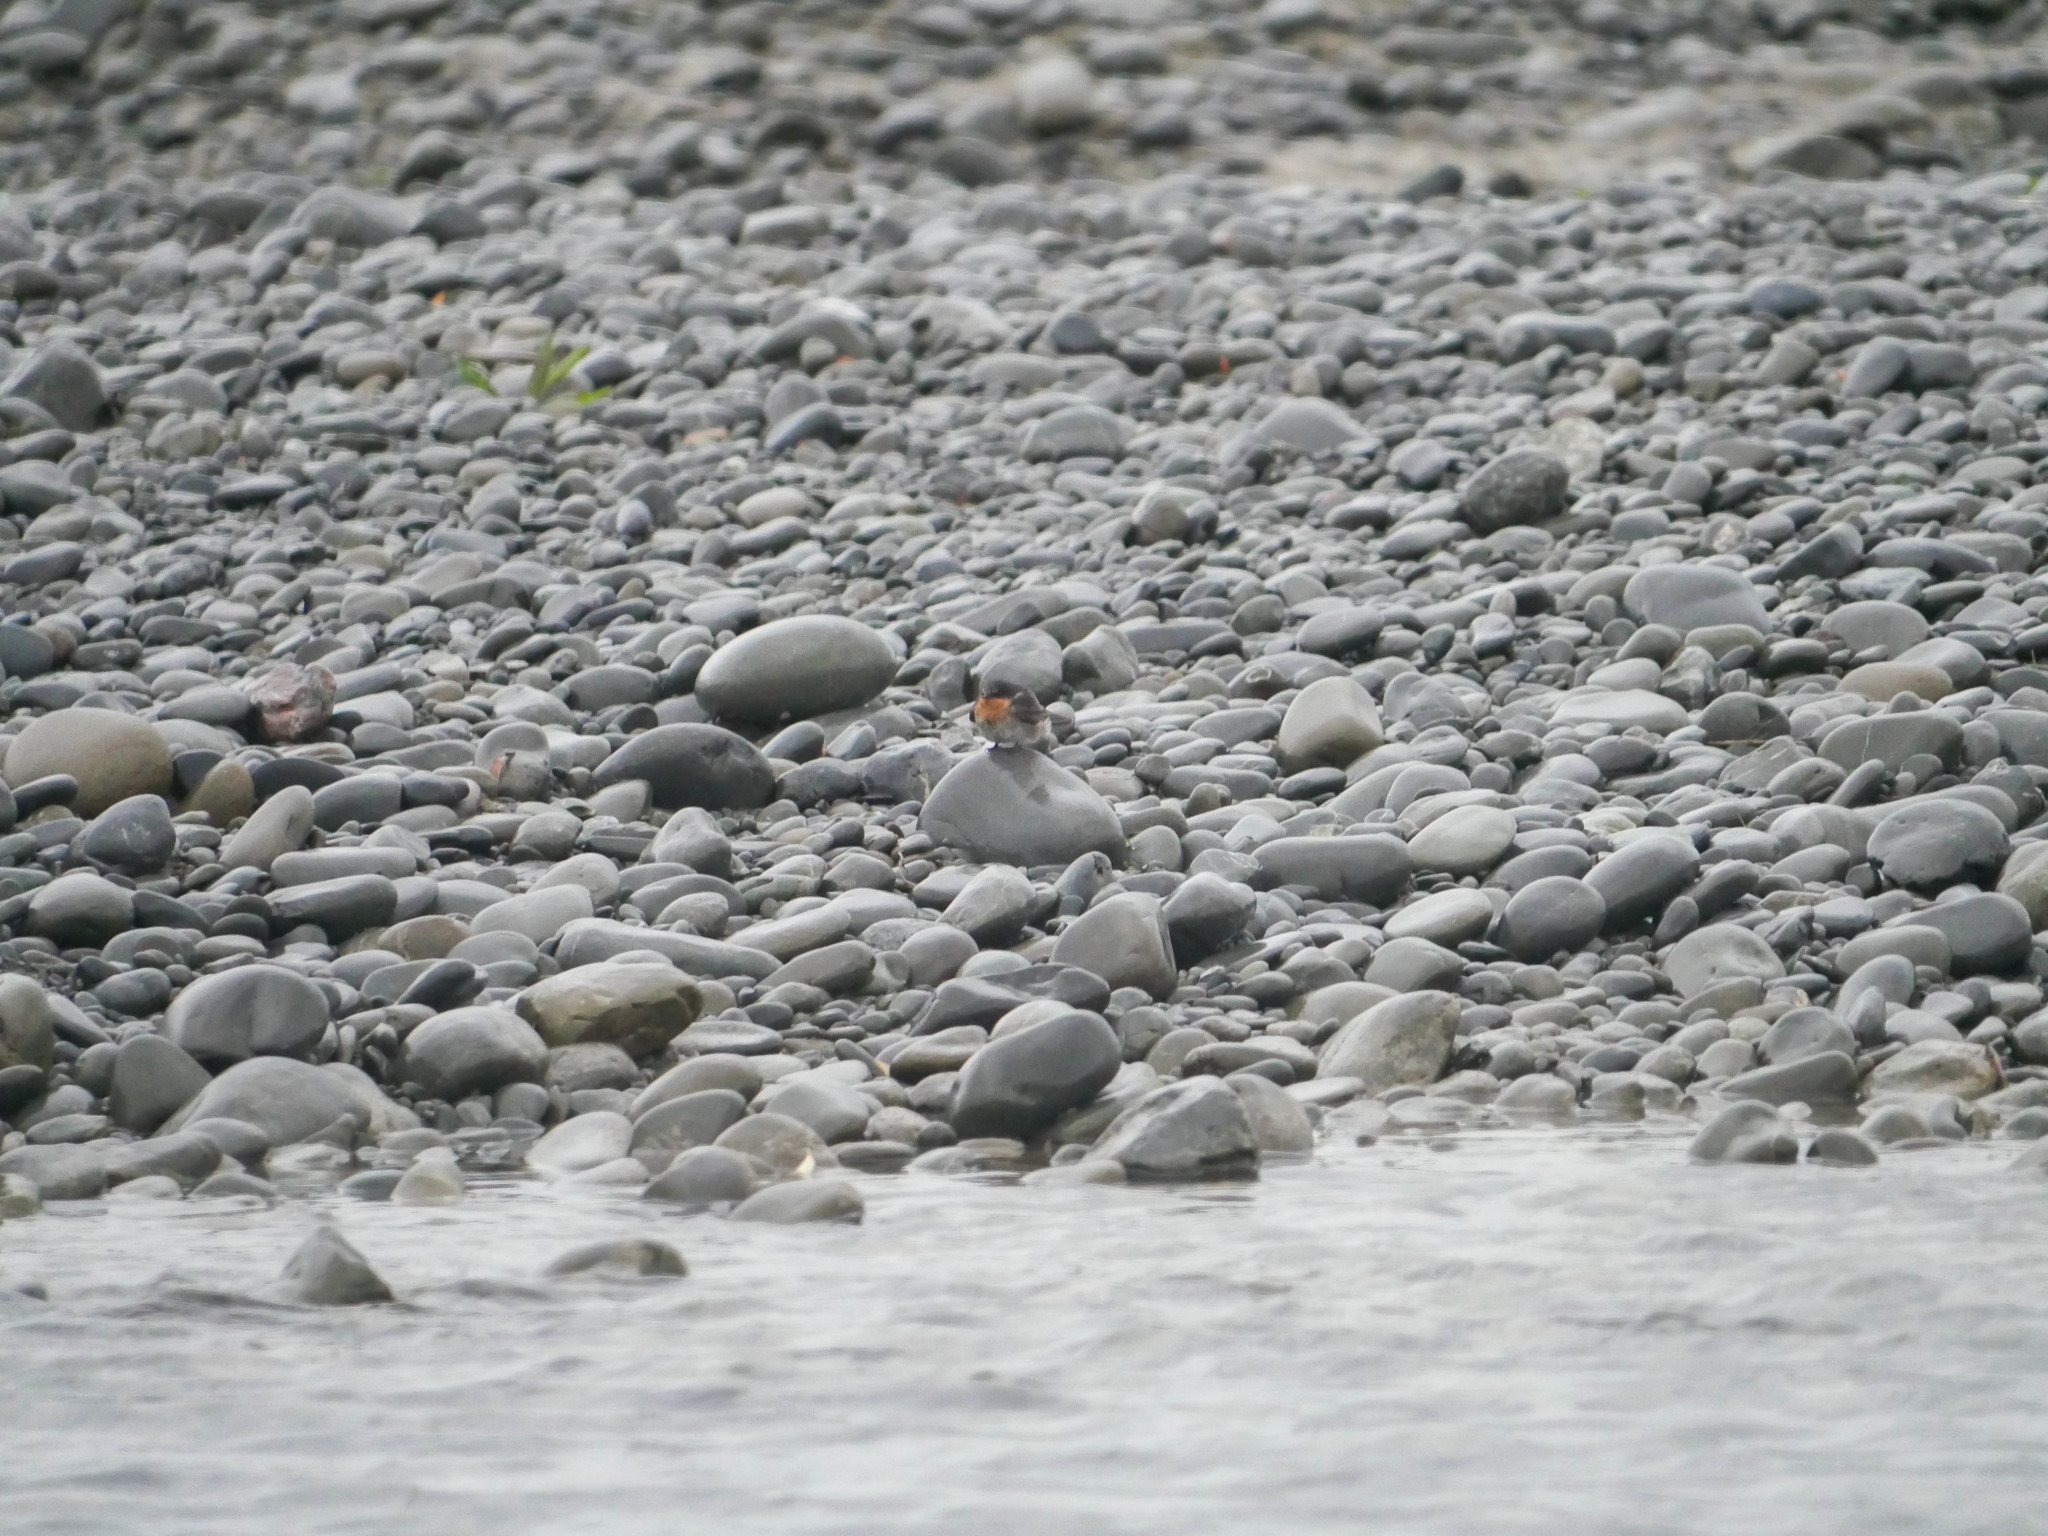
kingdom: Animalia
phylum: Chordata
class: Aves
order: Passeriformes
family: Hirundinidae
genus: Hirundo
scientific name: Hirundo neoxena
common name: Welcome swallow
